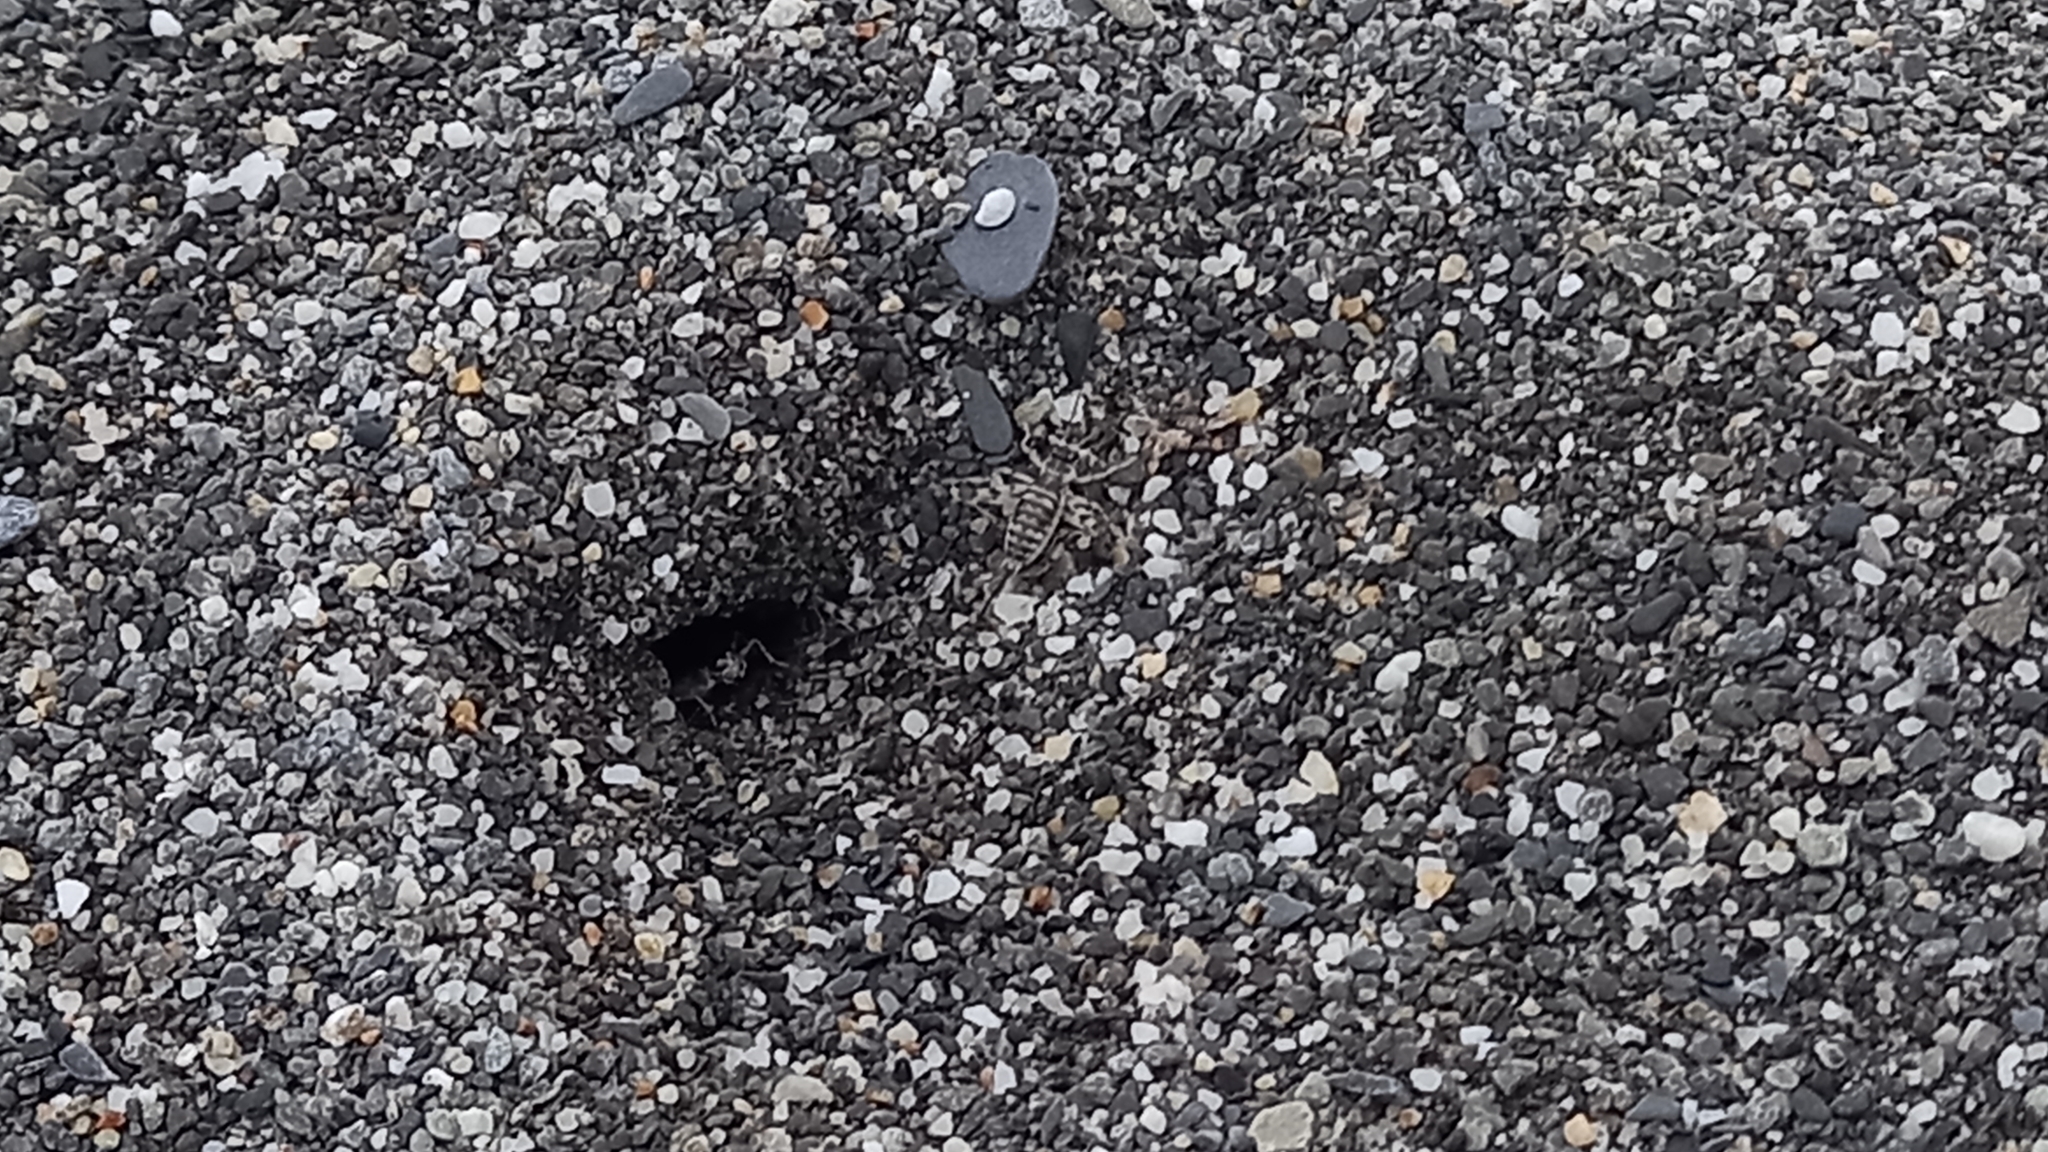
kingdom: Animalia
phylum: Arthropoda
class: Insecta
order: Orthoptera
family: Trigonidiidae
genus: Taiwanemobius
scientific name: Taiwanemobius formosanus
